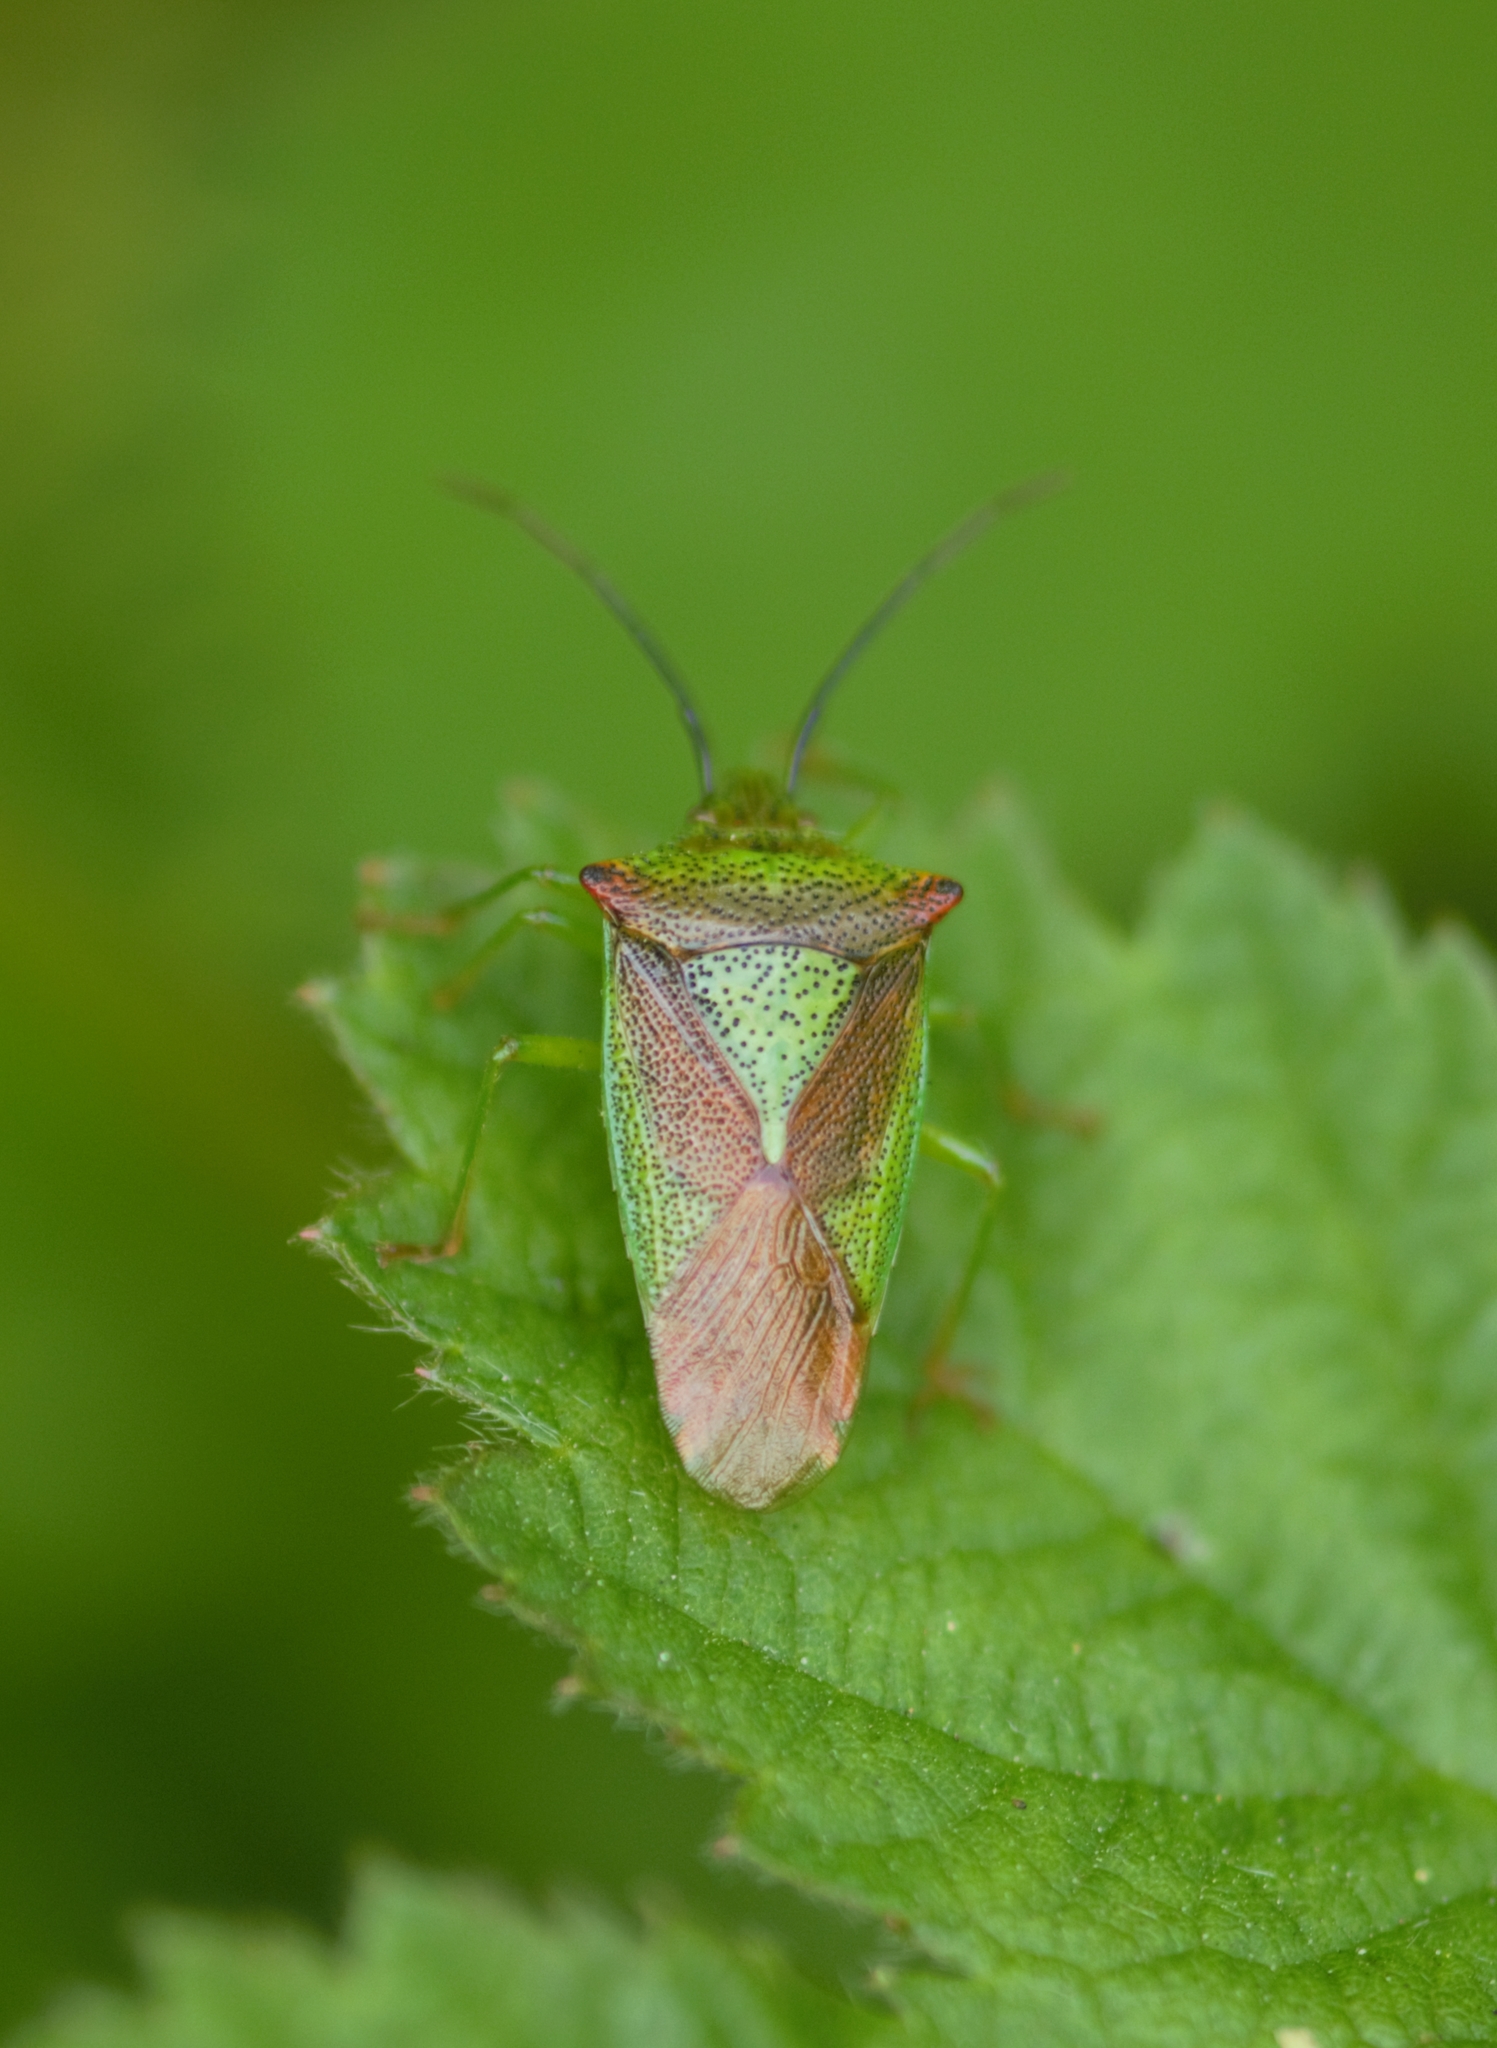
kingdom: Animalia
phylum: Arthropoda
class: Insecta
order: Hemiptera
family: Acanthosomatidae
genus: Acanthosoma
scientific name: Acanthosoma haemorrhoidale
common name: Hawthorn shieldbug
